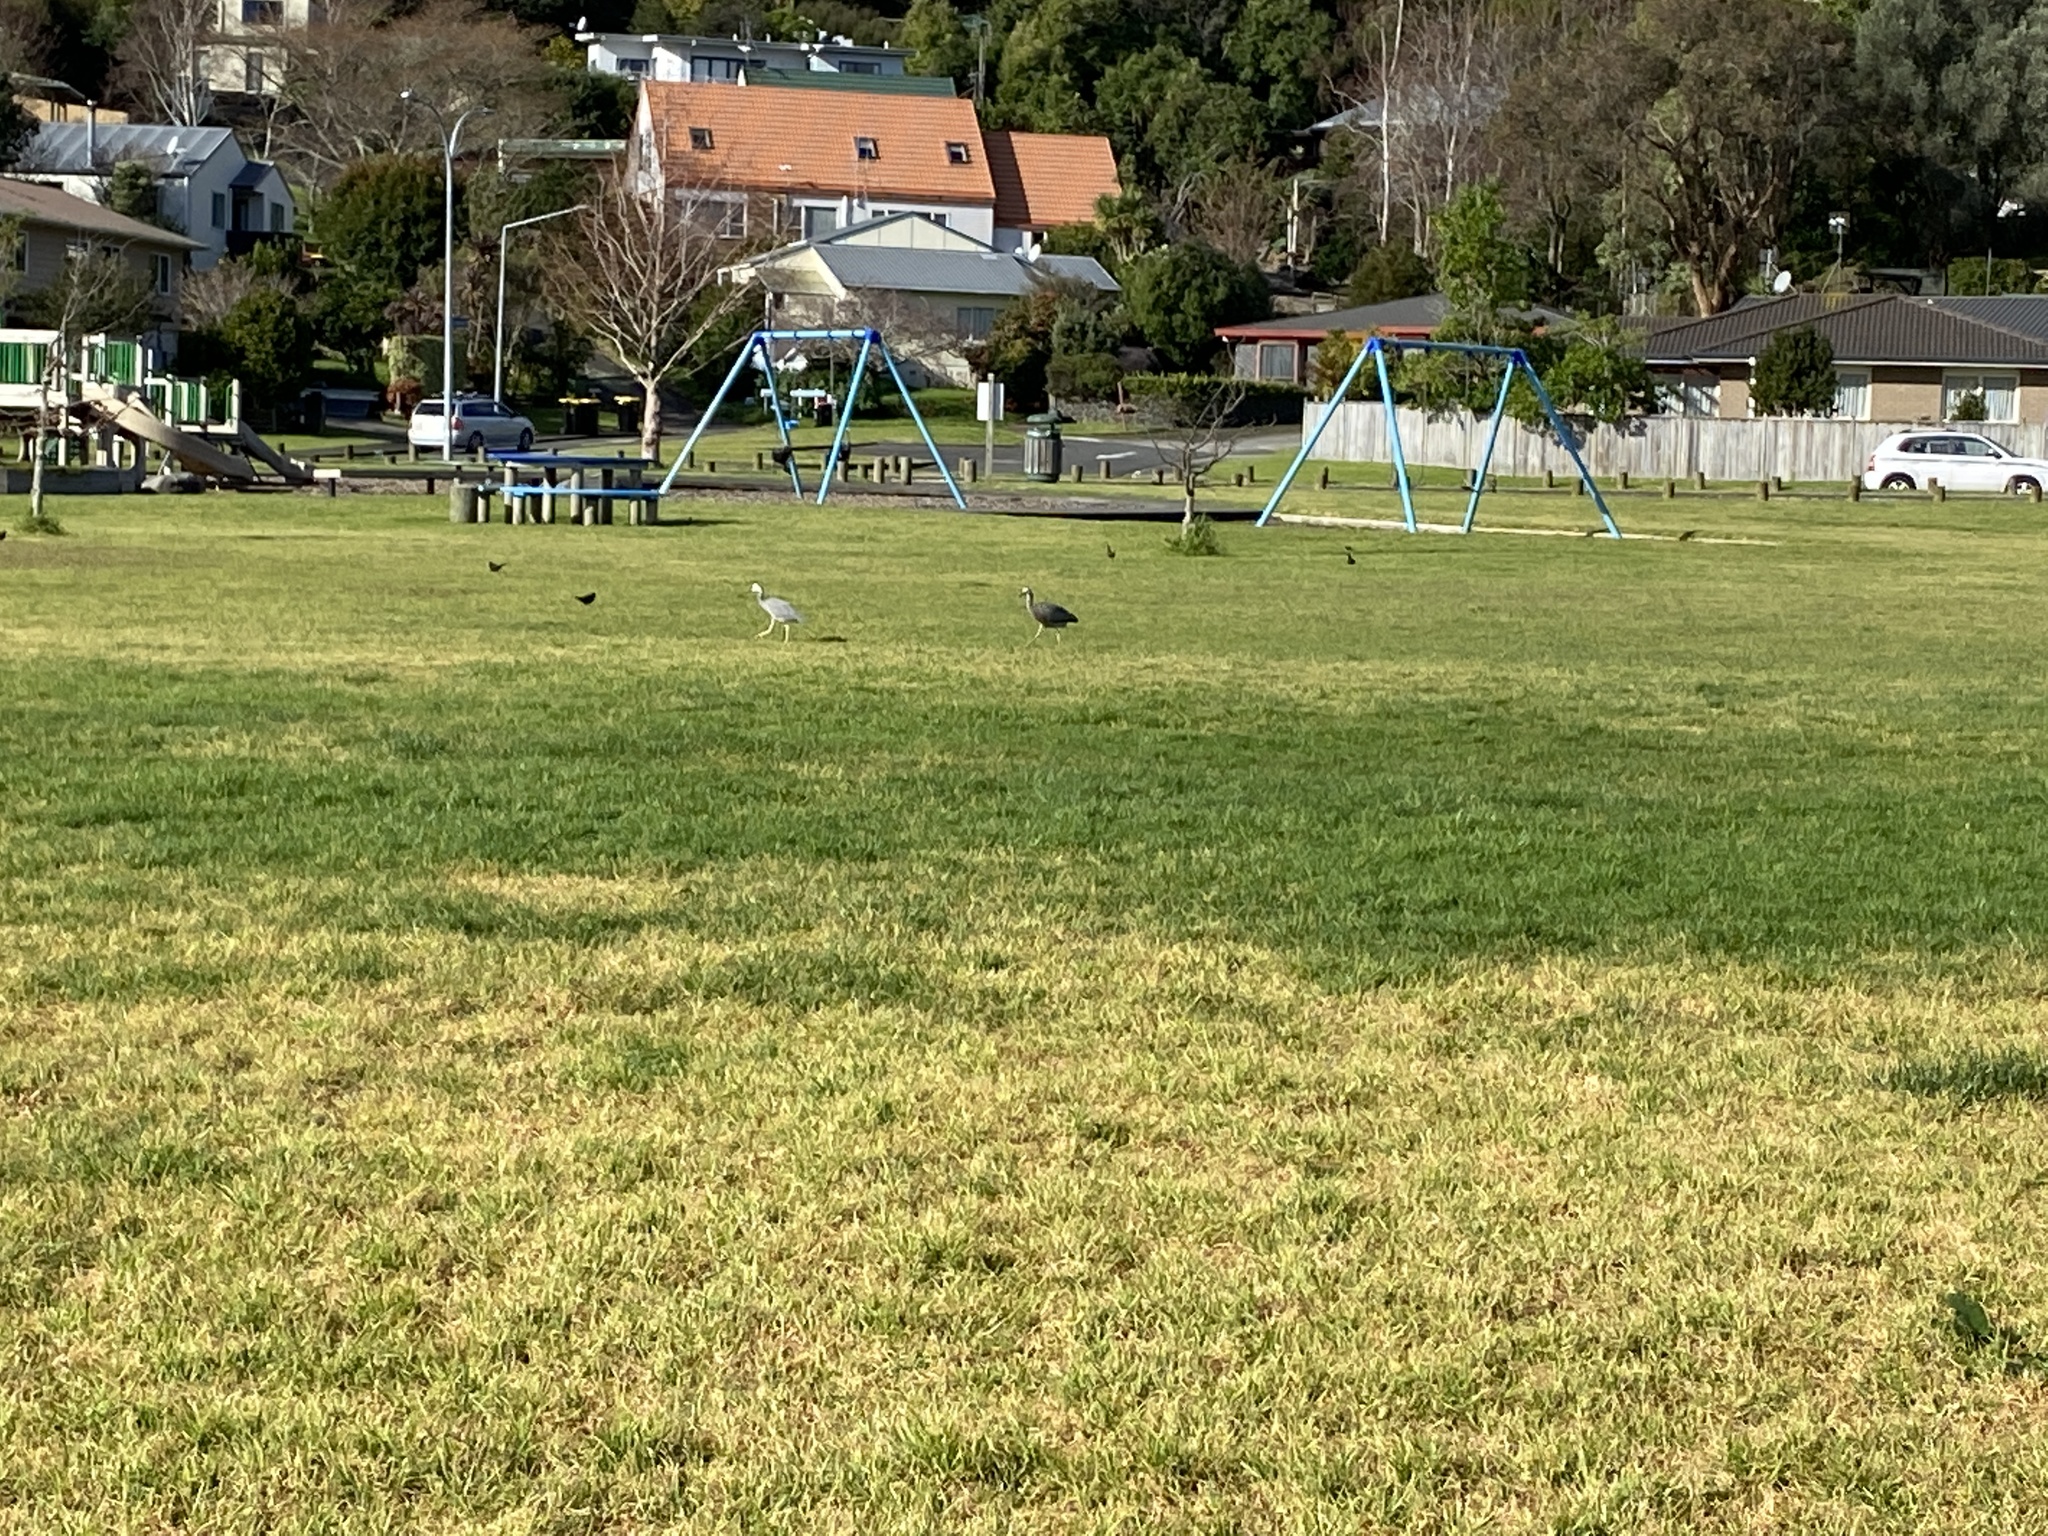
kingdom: Animalia
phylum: Chordata
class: Aves
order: Pelecaniformes
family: Ardeidae
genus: Egretta
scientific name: Egretta novaehollandiae
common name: White-faced heron
